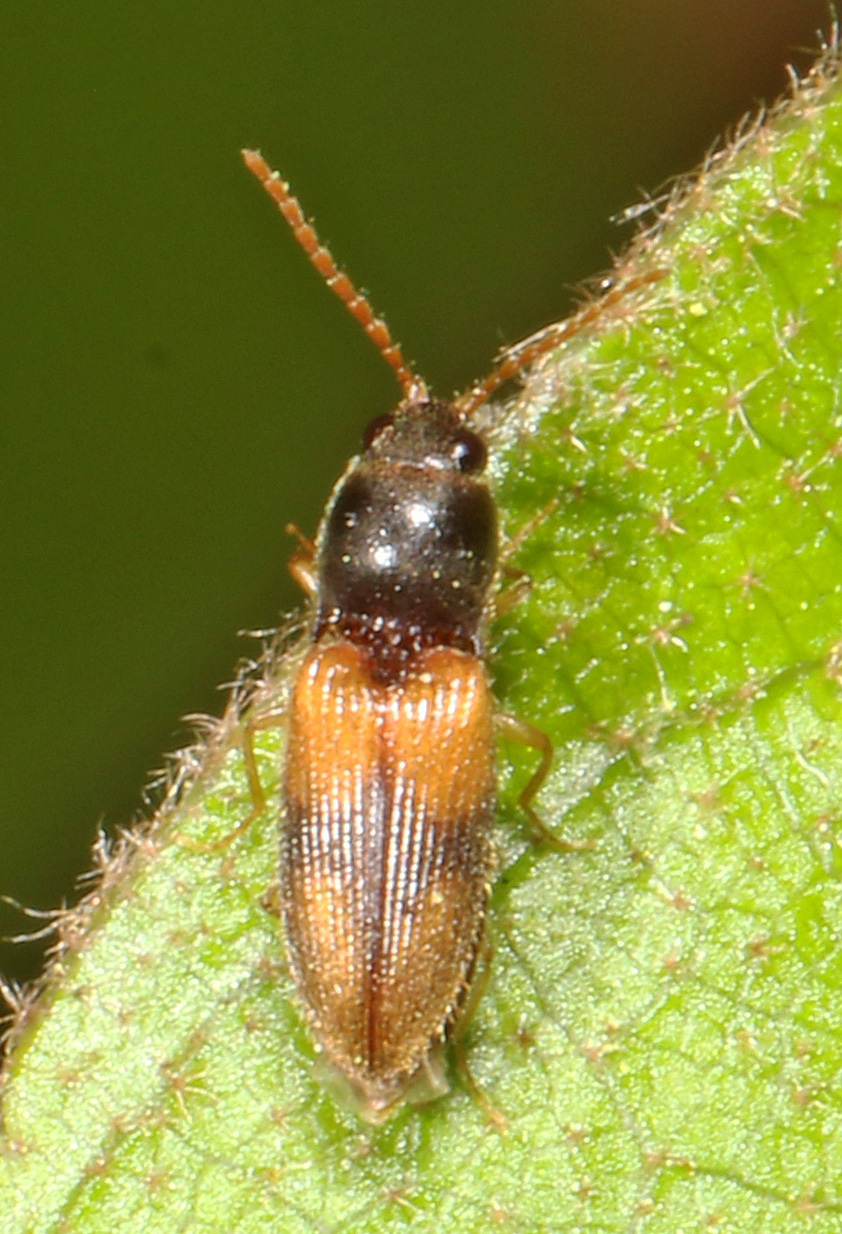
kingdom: Animalia
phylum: Arthropoda
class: Insecta
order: Coleoptera
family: Elateridae
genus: Horistonotus
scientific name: Horistonotus curiatus
